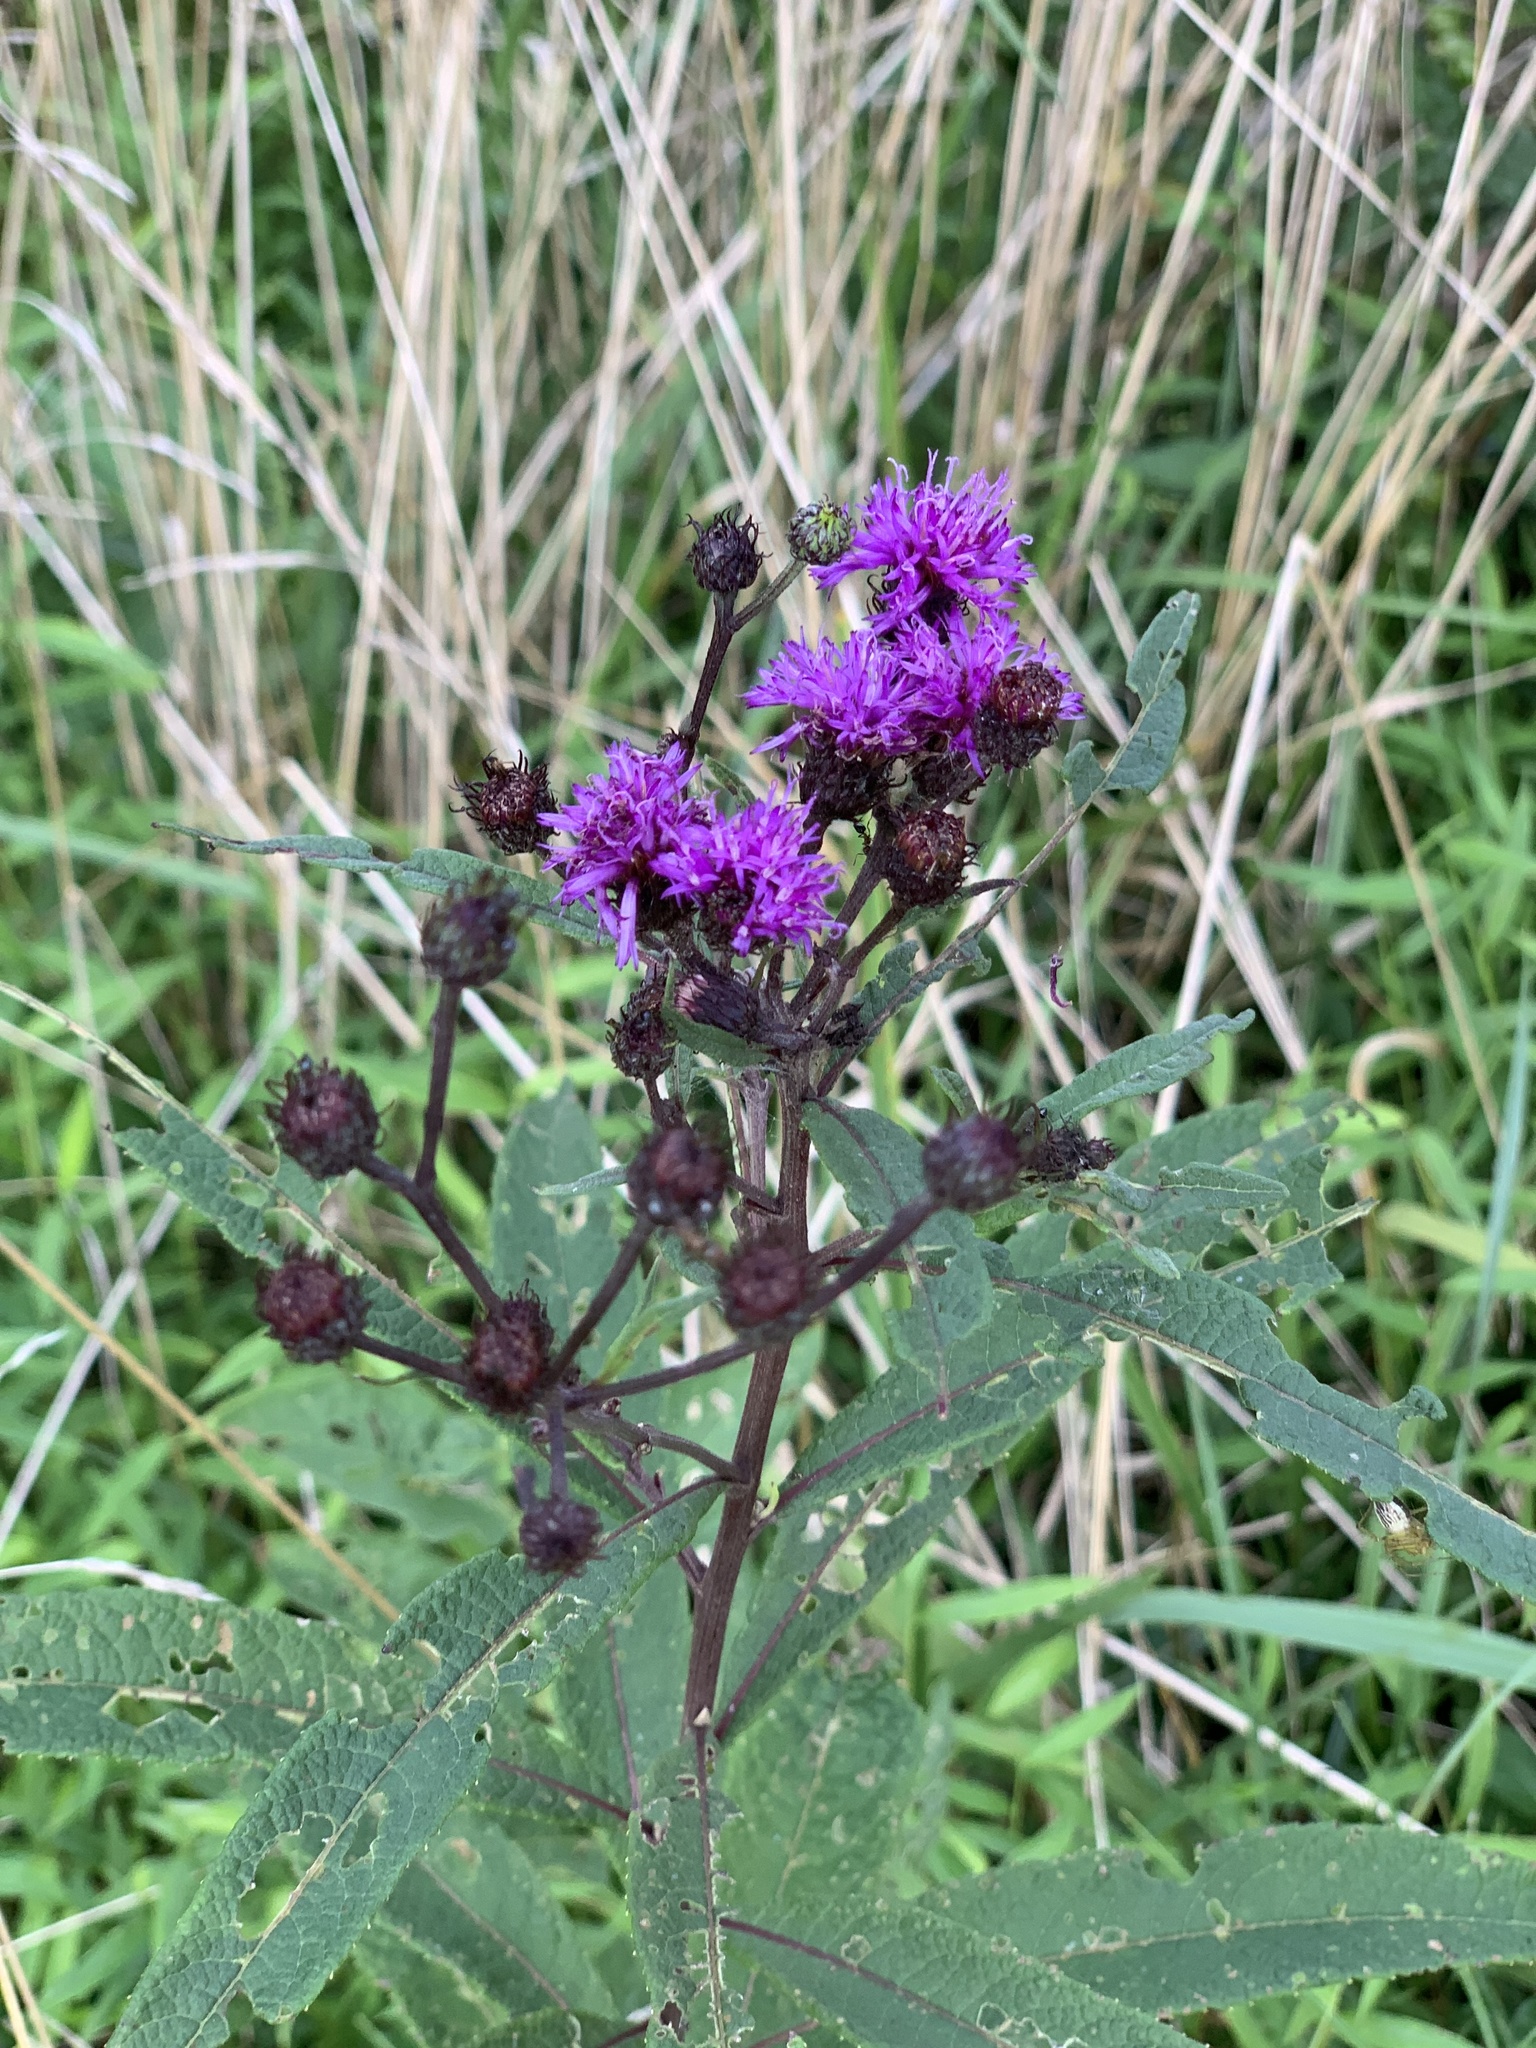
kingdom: Plantae
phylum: Tracheophyta
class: Magnoliopsida
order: Asterales
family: Asteraceae
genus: Vernonia
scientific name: Vernonia noveboracensis
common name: New york ironweed
